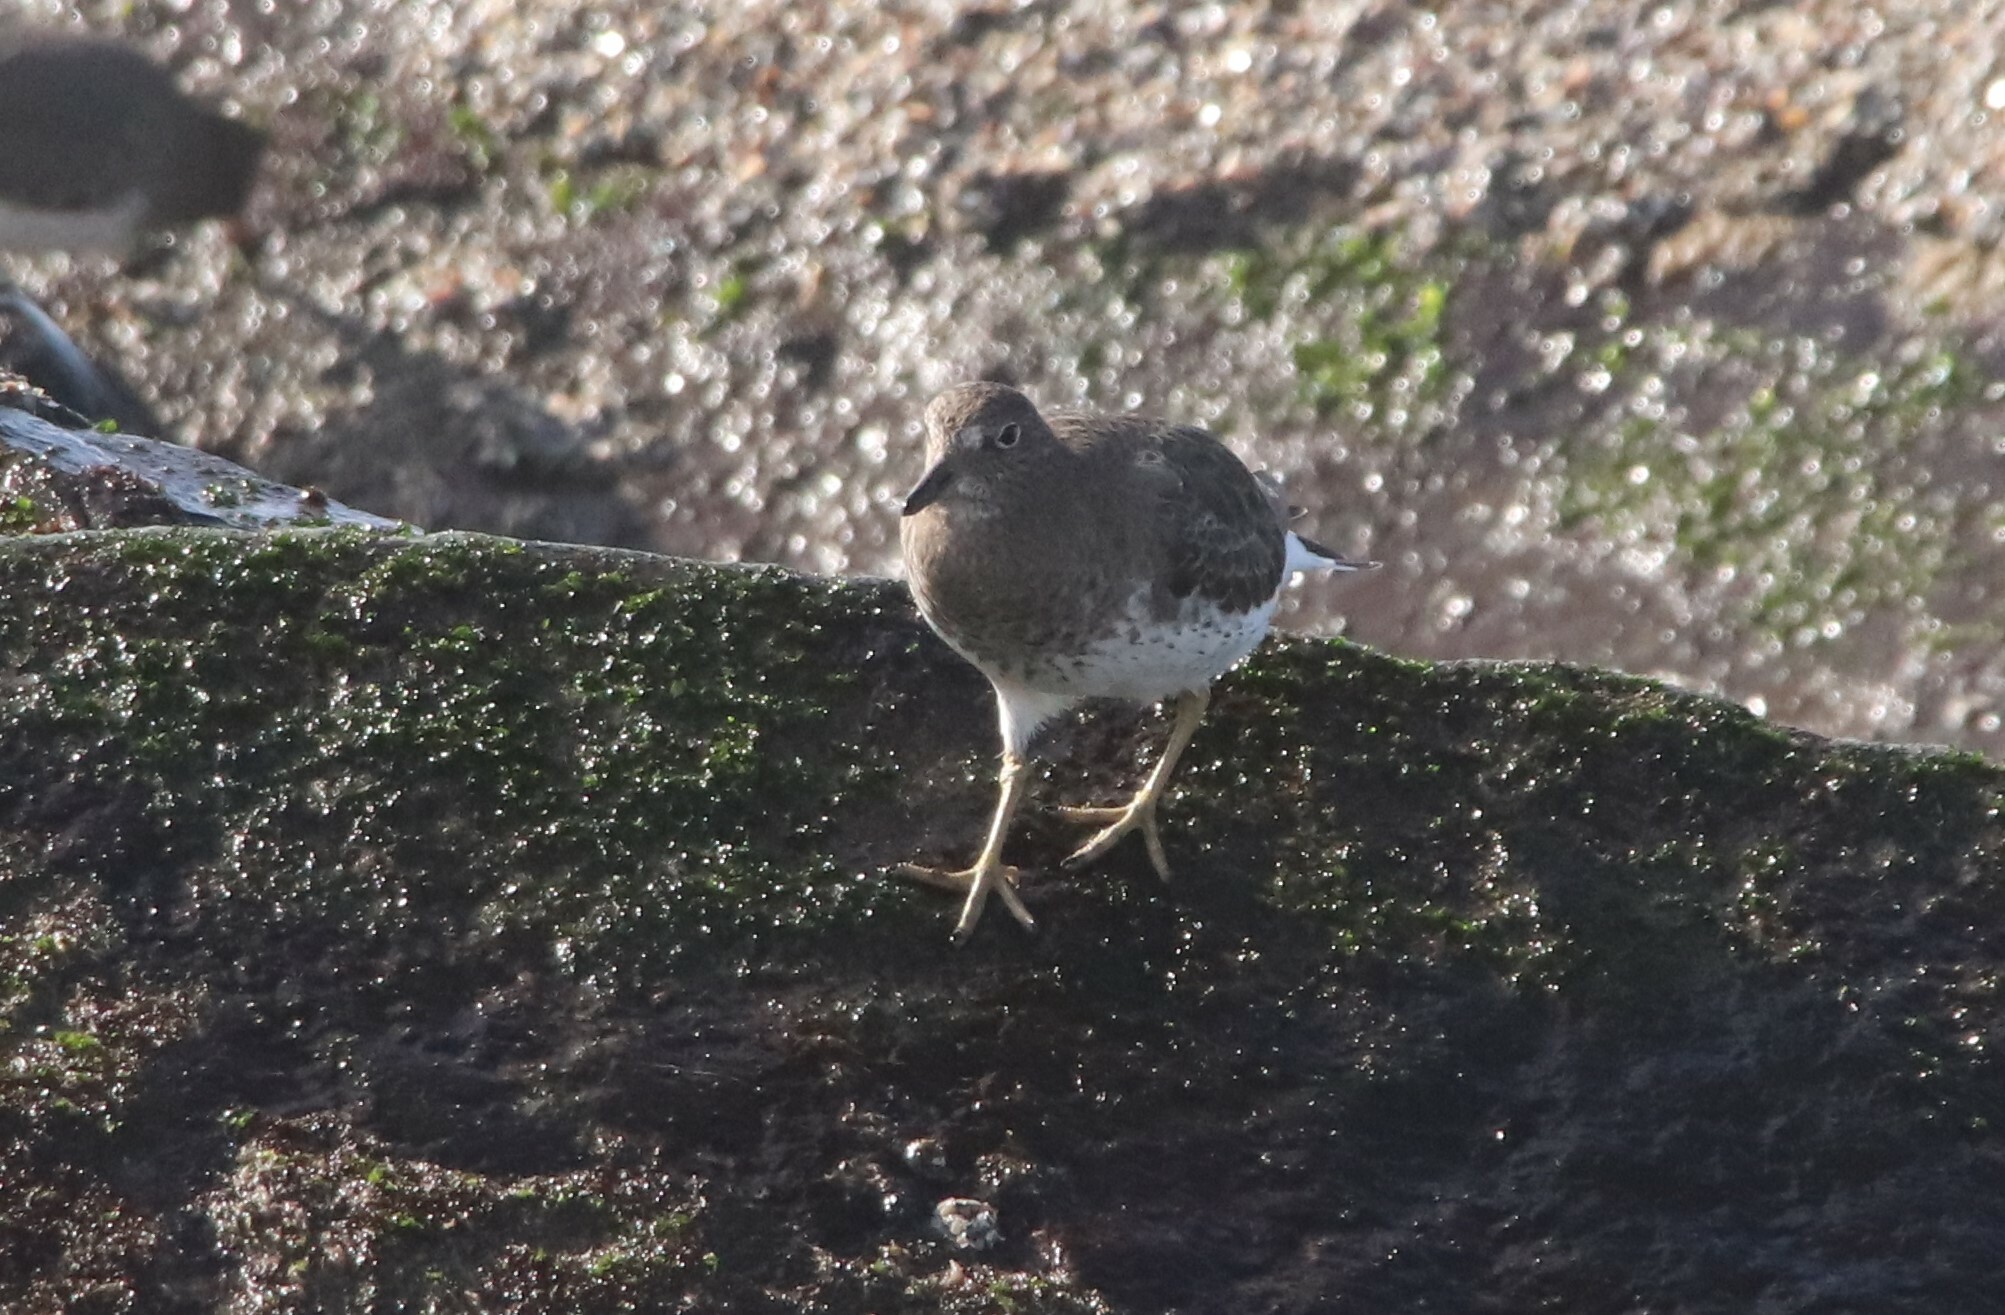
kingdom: Animalia
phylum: Chordata
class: Aves
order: Charadriiformes
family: Scolopacidae
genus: Calidris
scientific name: Calidris virgata
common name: Surfbird
